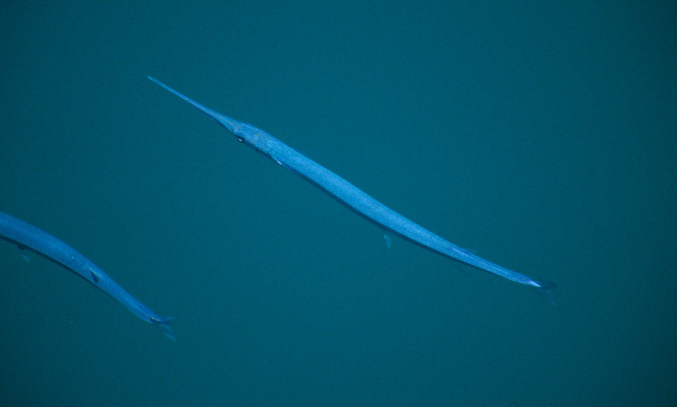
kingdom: Animalia
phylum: Chordata
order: Beloniformes
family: Belonidae
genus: Platybelone
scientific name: Platybelone argalus
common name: Keeltail needlefish
